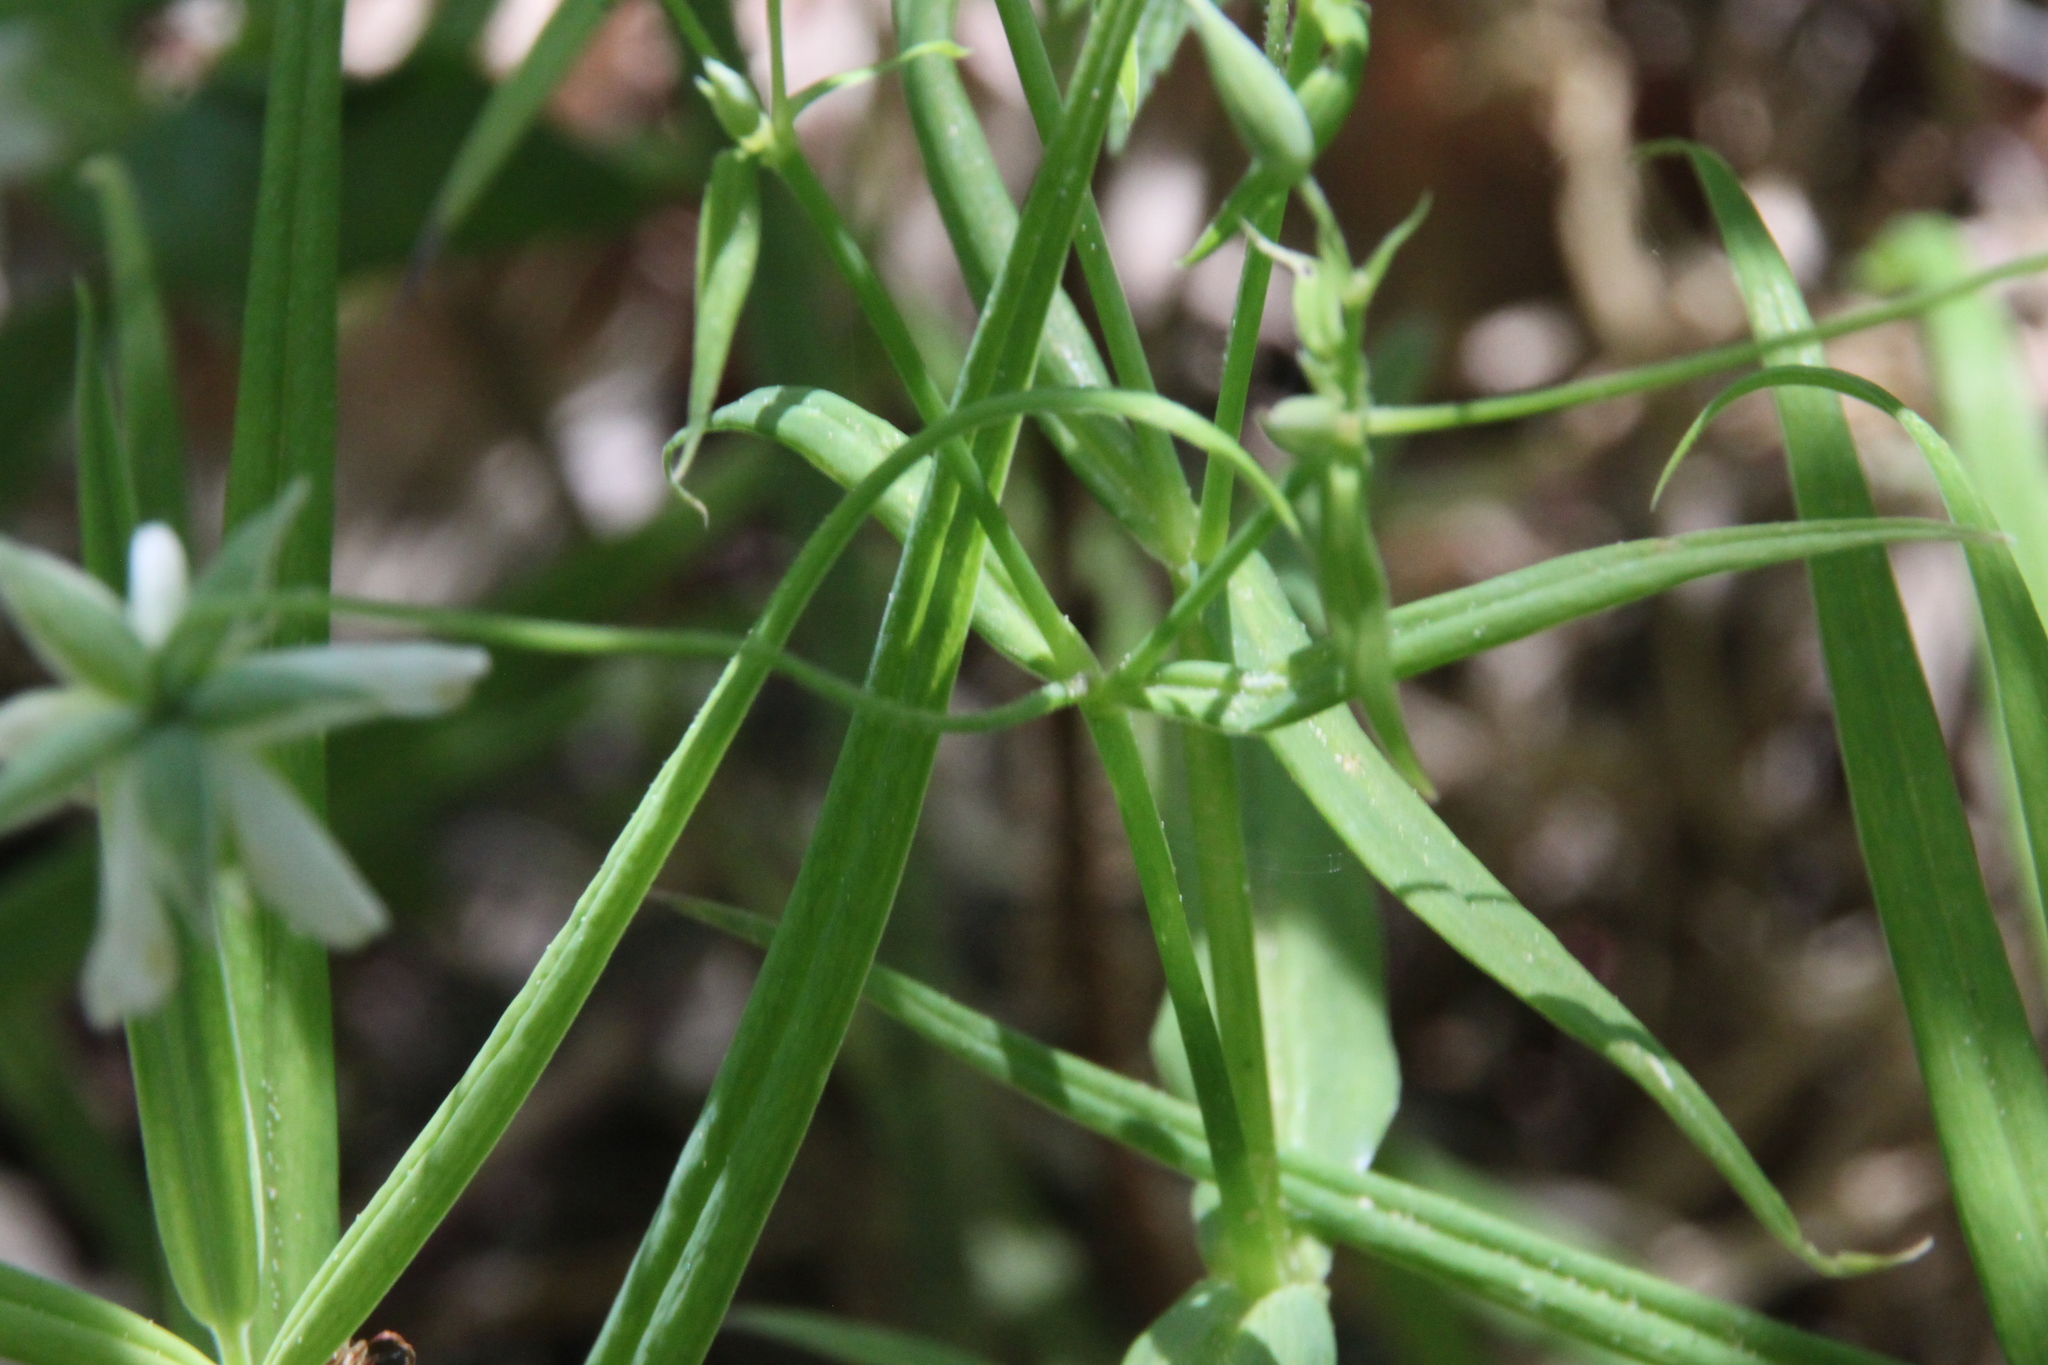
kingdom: Plantae
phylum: Tracheophyta
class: Magnoliopsida
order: Caryophyllales
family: Caryophyllaceae
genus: Rabelera
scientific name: Rabelera holostea
